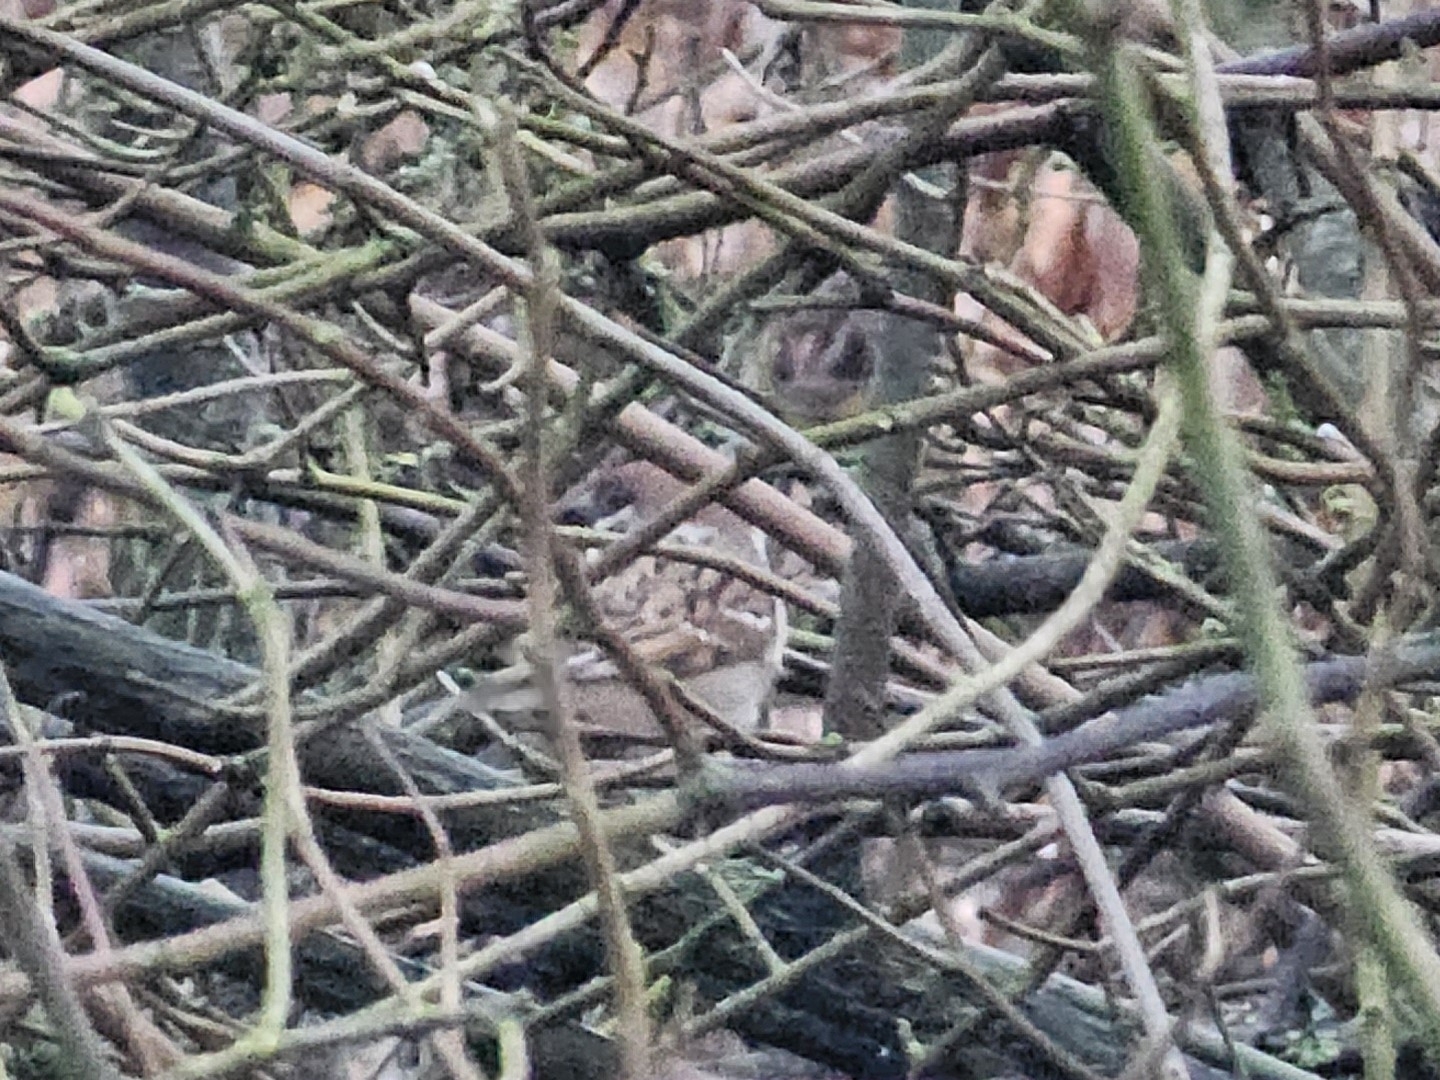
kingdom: Animalia
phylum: Chordata
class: Aves
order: Passeriformes
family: Passeridae
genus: Passer
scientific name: Passer montanus
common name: Eurasian tree sparrow
